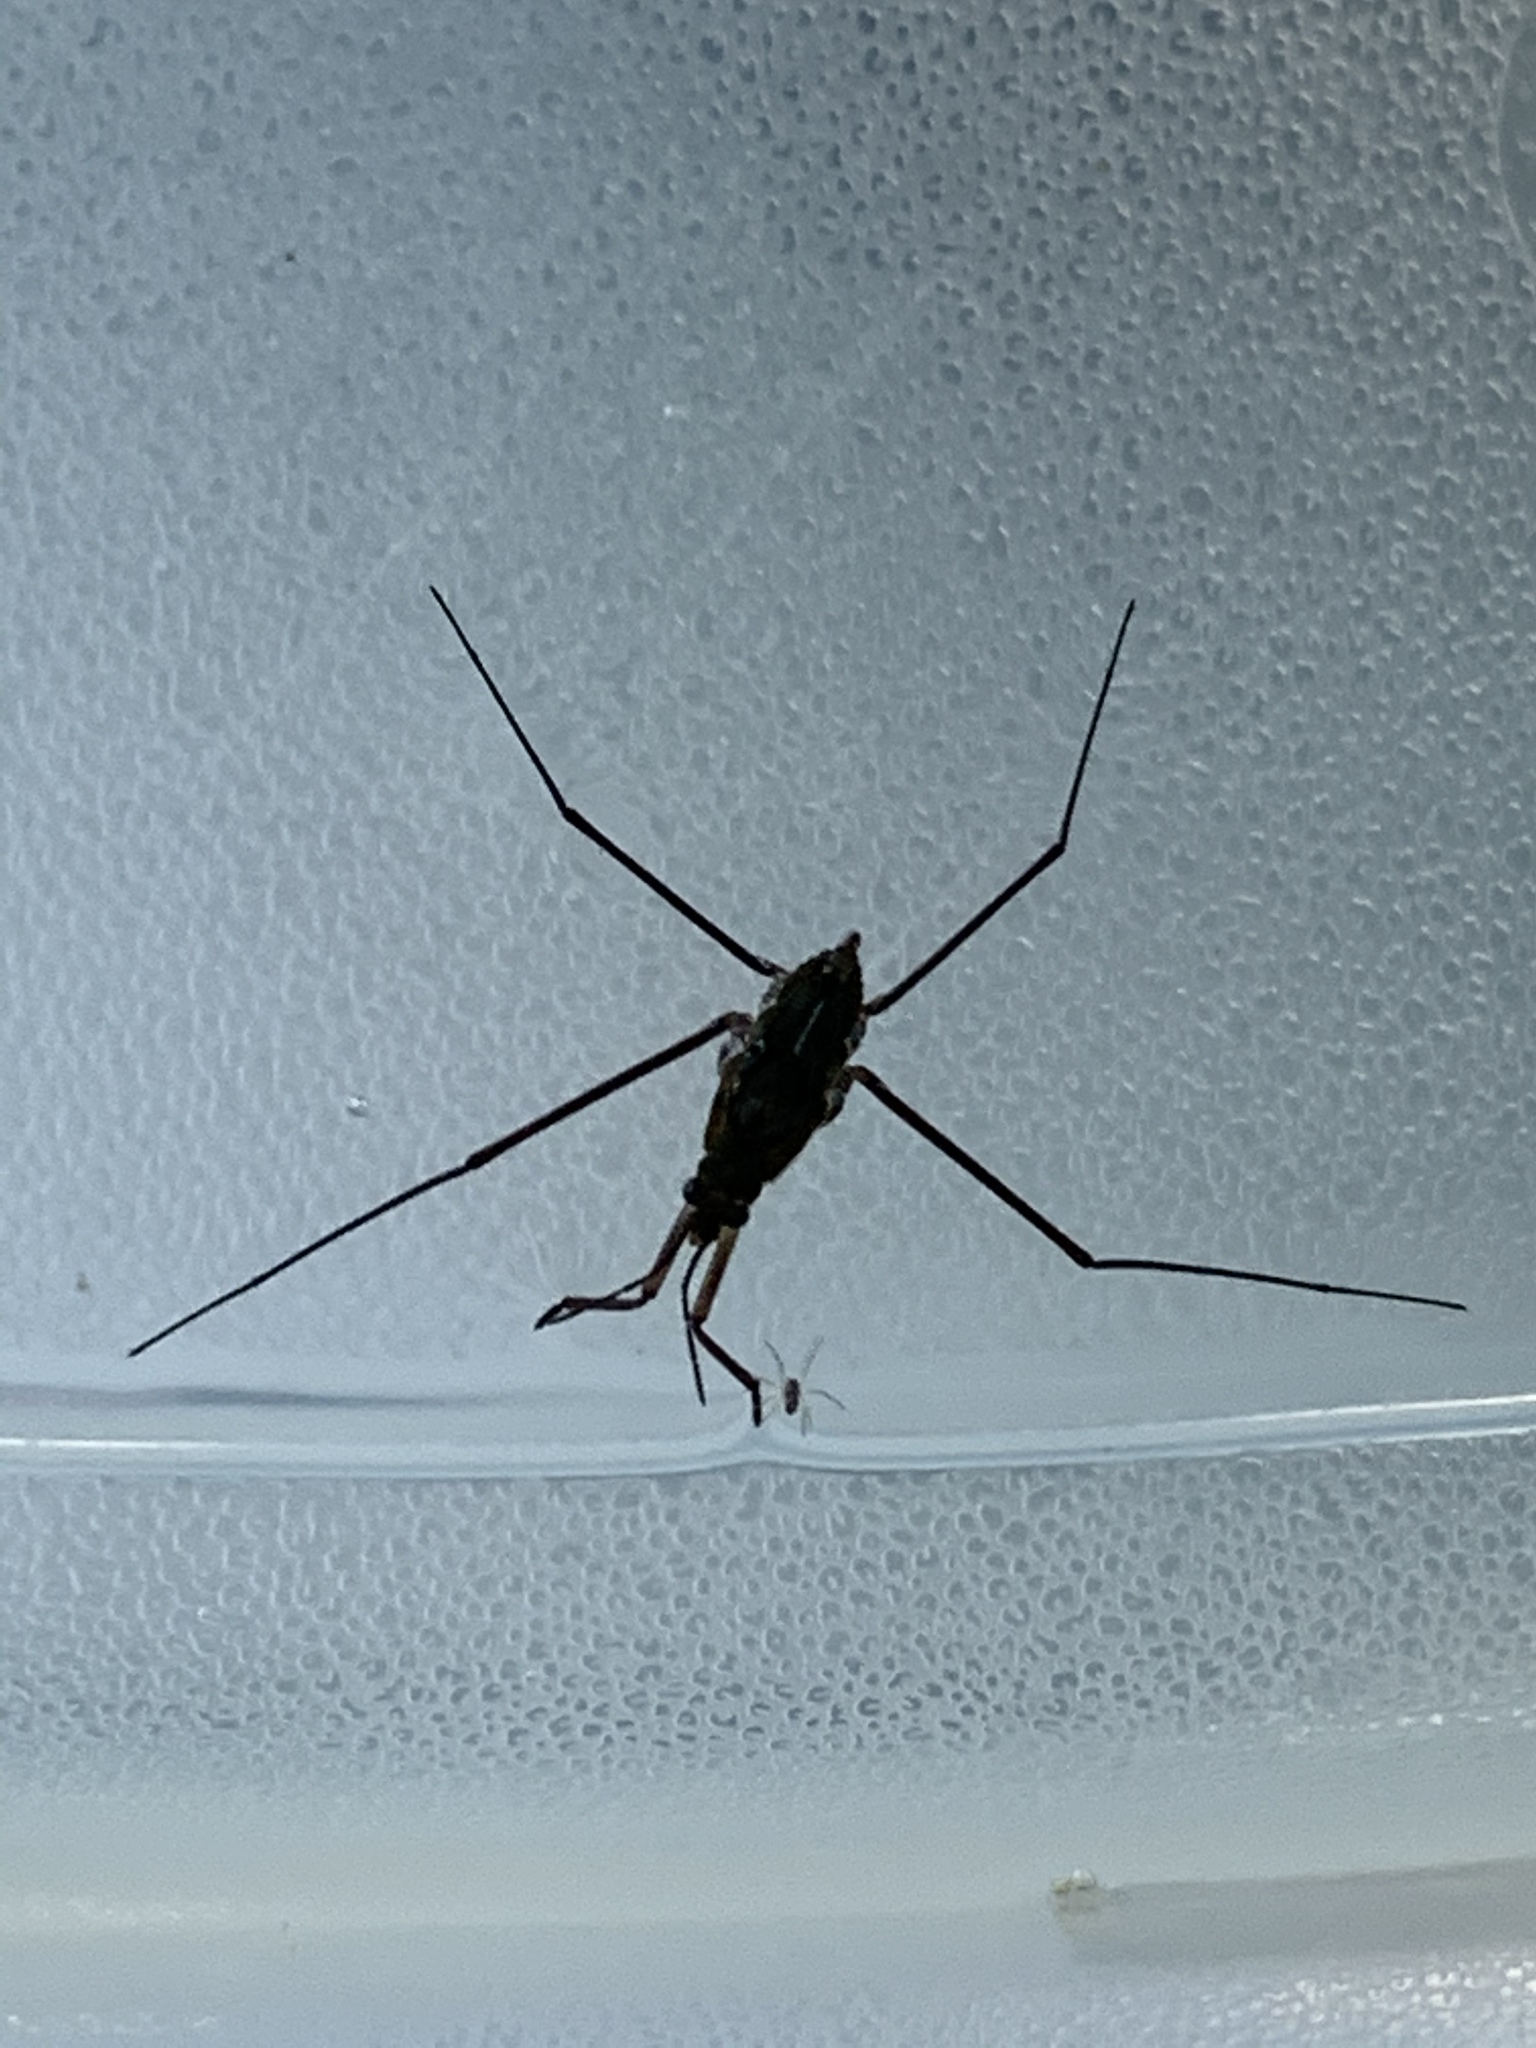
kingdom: Animalia
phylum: Arthropoda
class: Insecta
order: Hemiptera
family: Gerridae
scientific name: Gerridae
